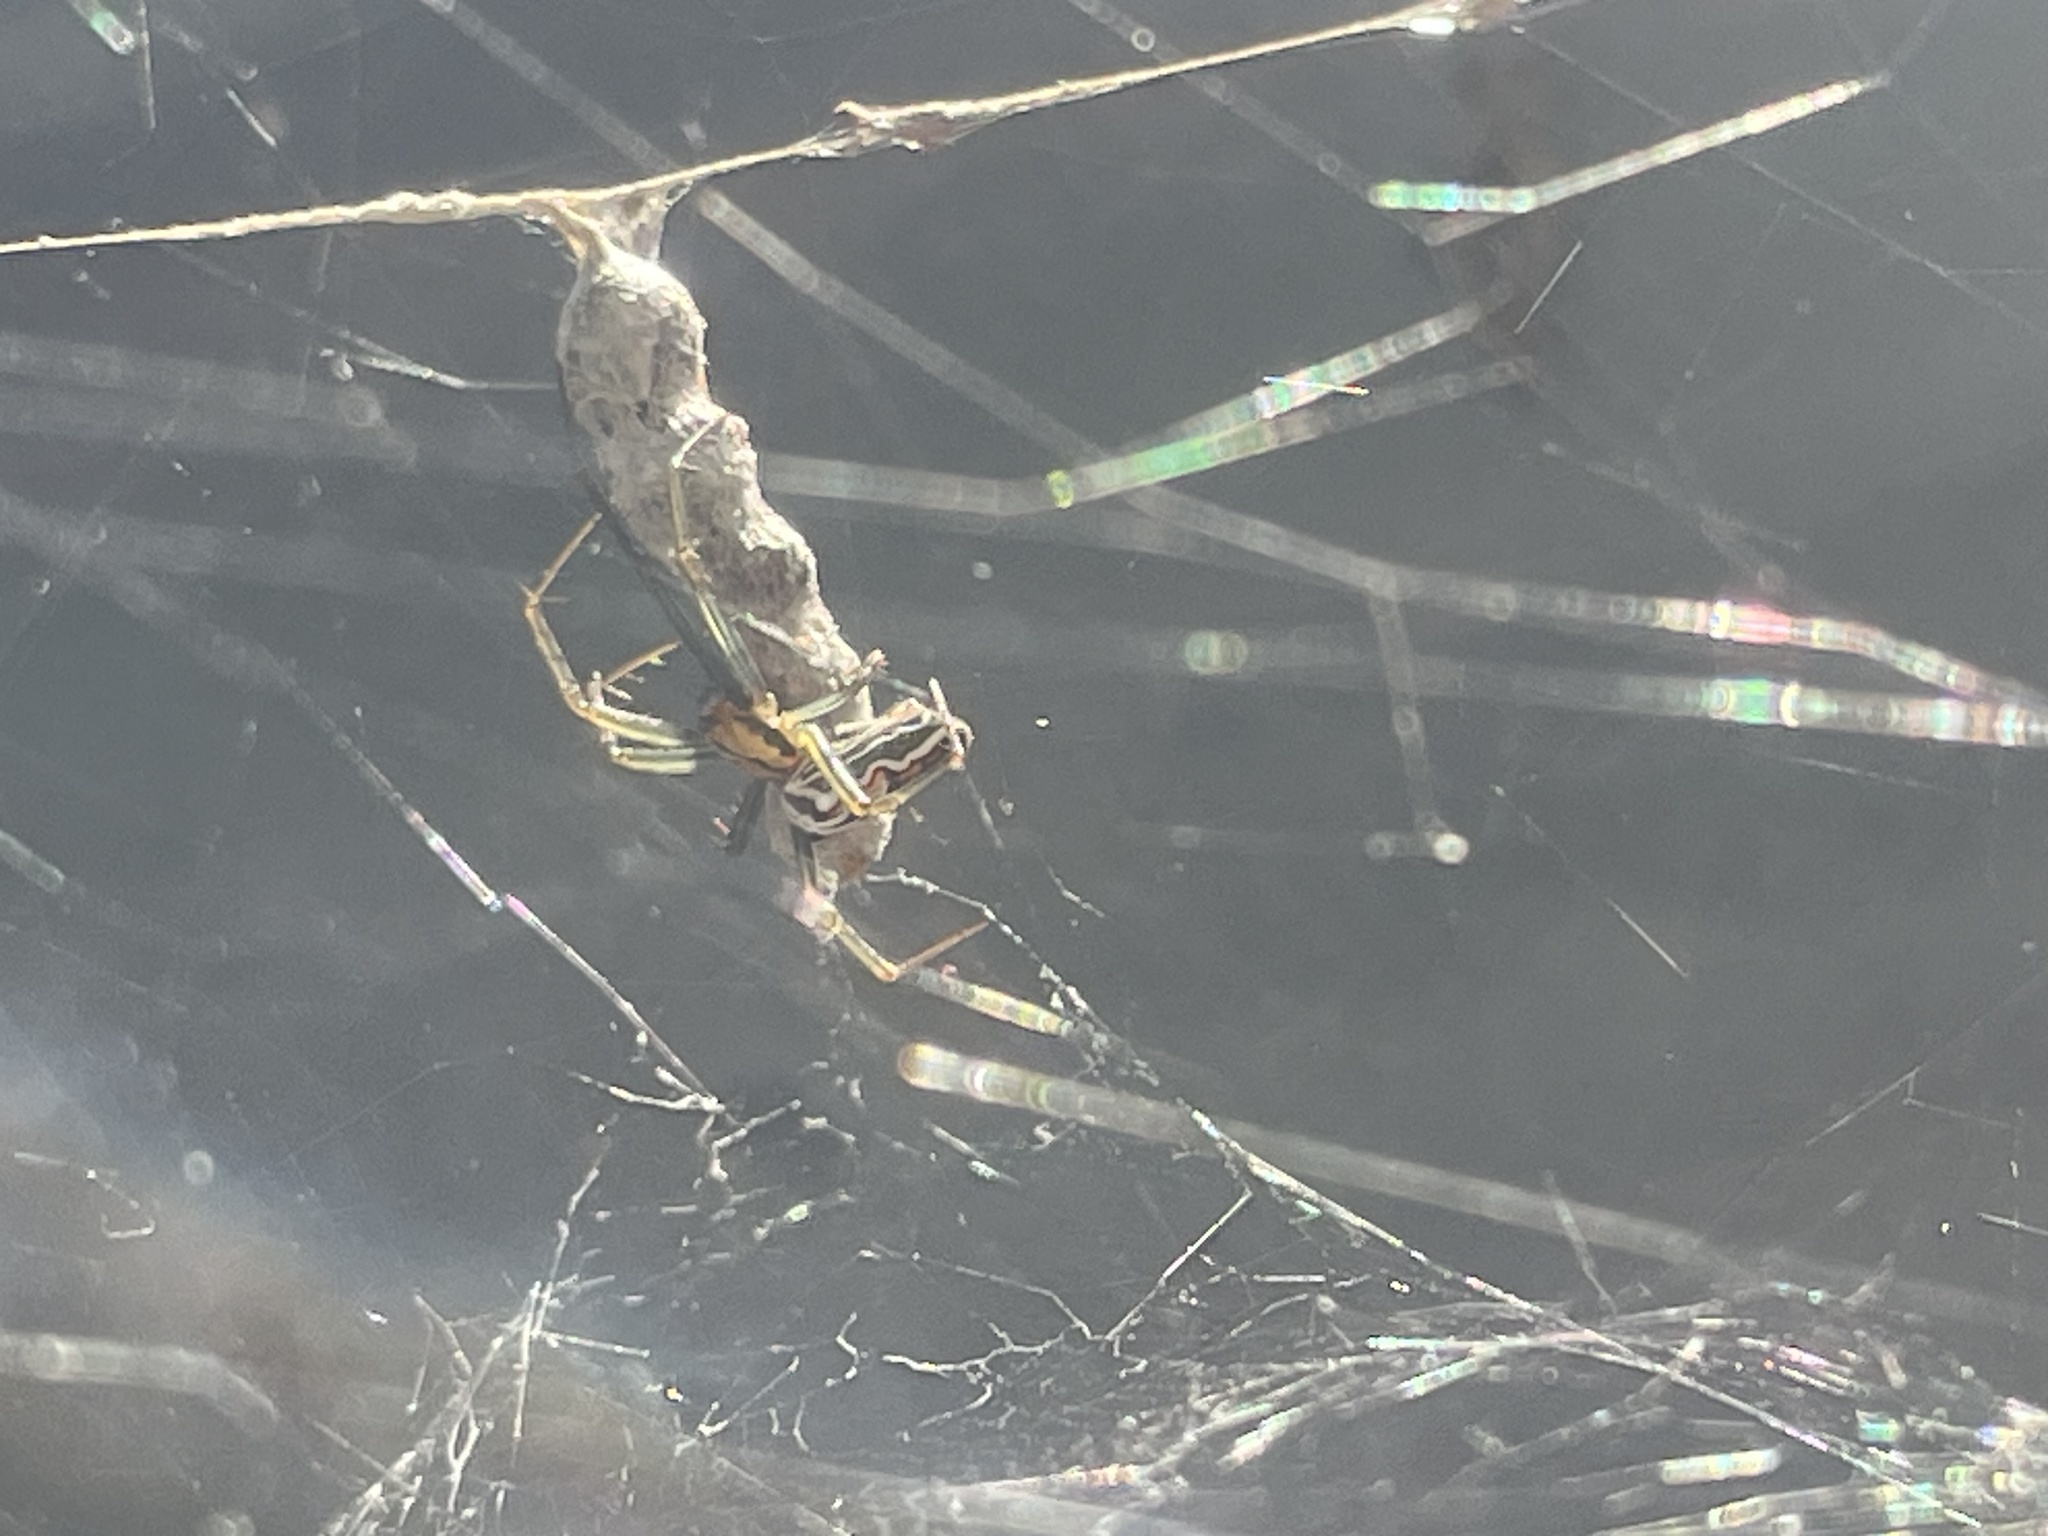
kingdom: Animalia
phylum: Arthropoda
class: Arachnida
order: Araneae
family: Araneidae
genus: Mecynogea
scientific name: Mecynogea lemniscata
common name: Orb weavers
